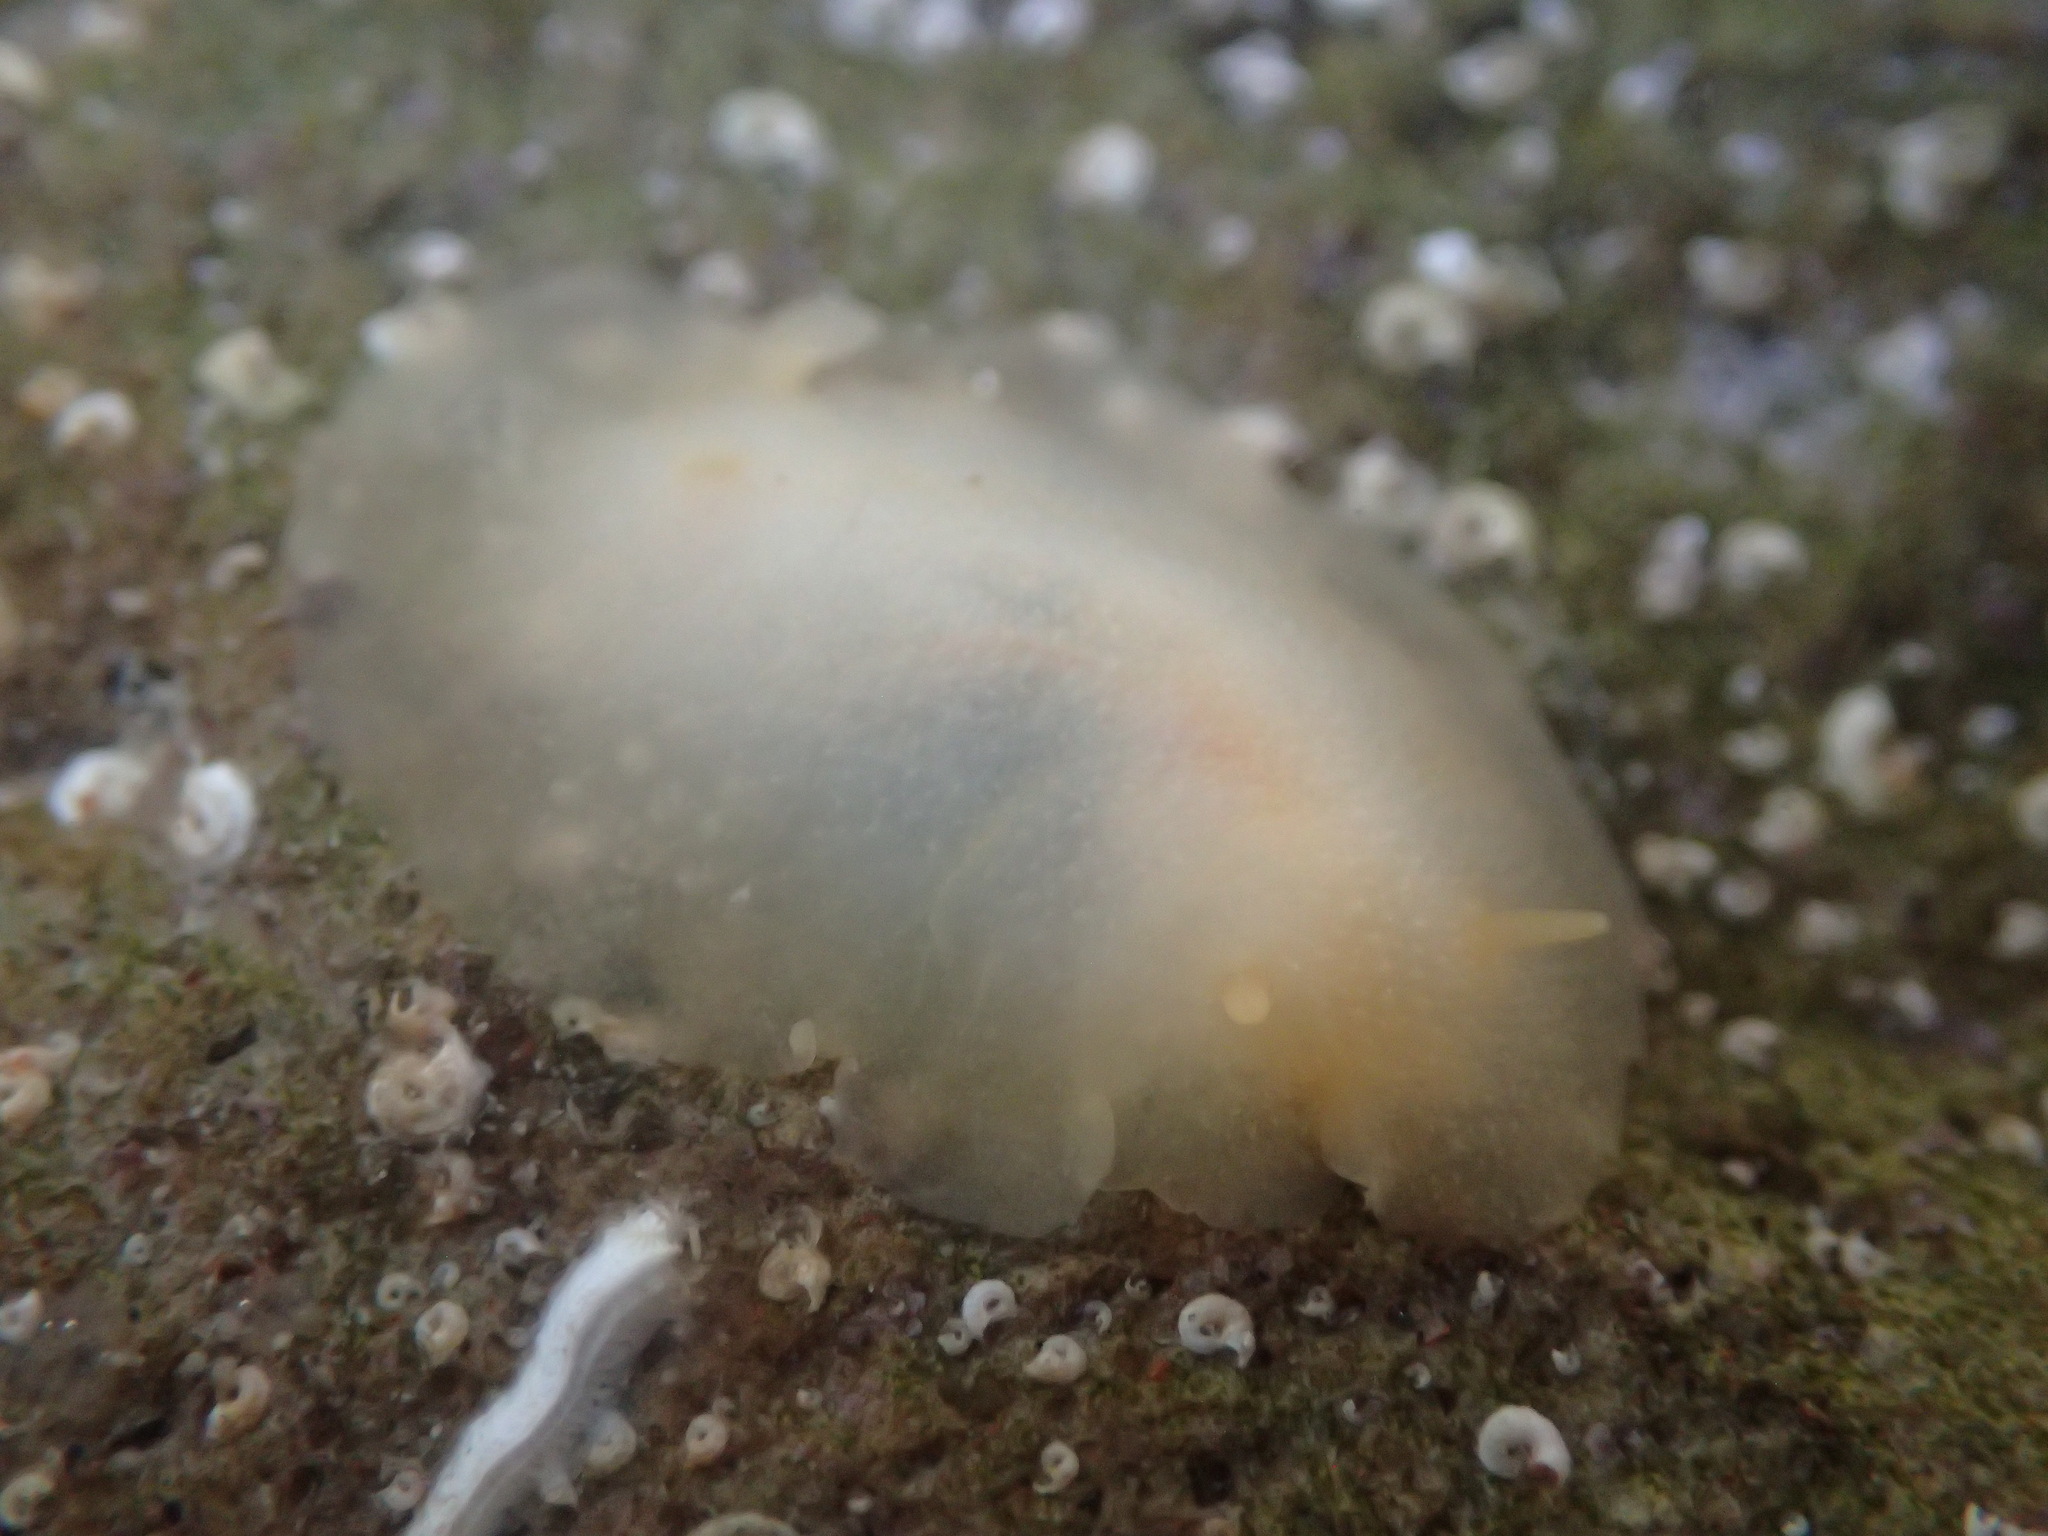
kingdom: Animalia
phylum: Mollusca
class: Gastropoda
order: Nudibranchia
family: Dorididae
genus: Conualevia
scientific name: Conualevia marcusi
